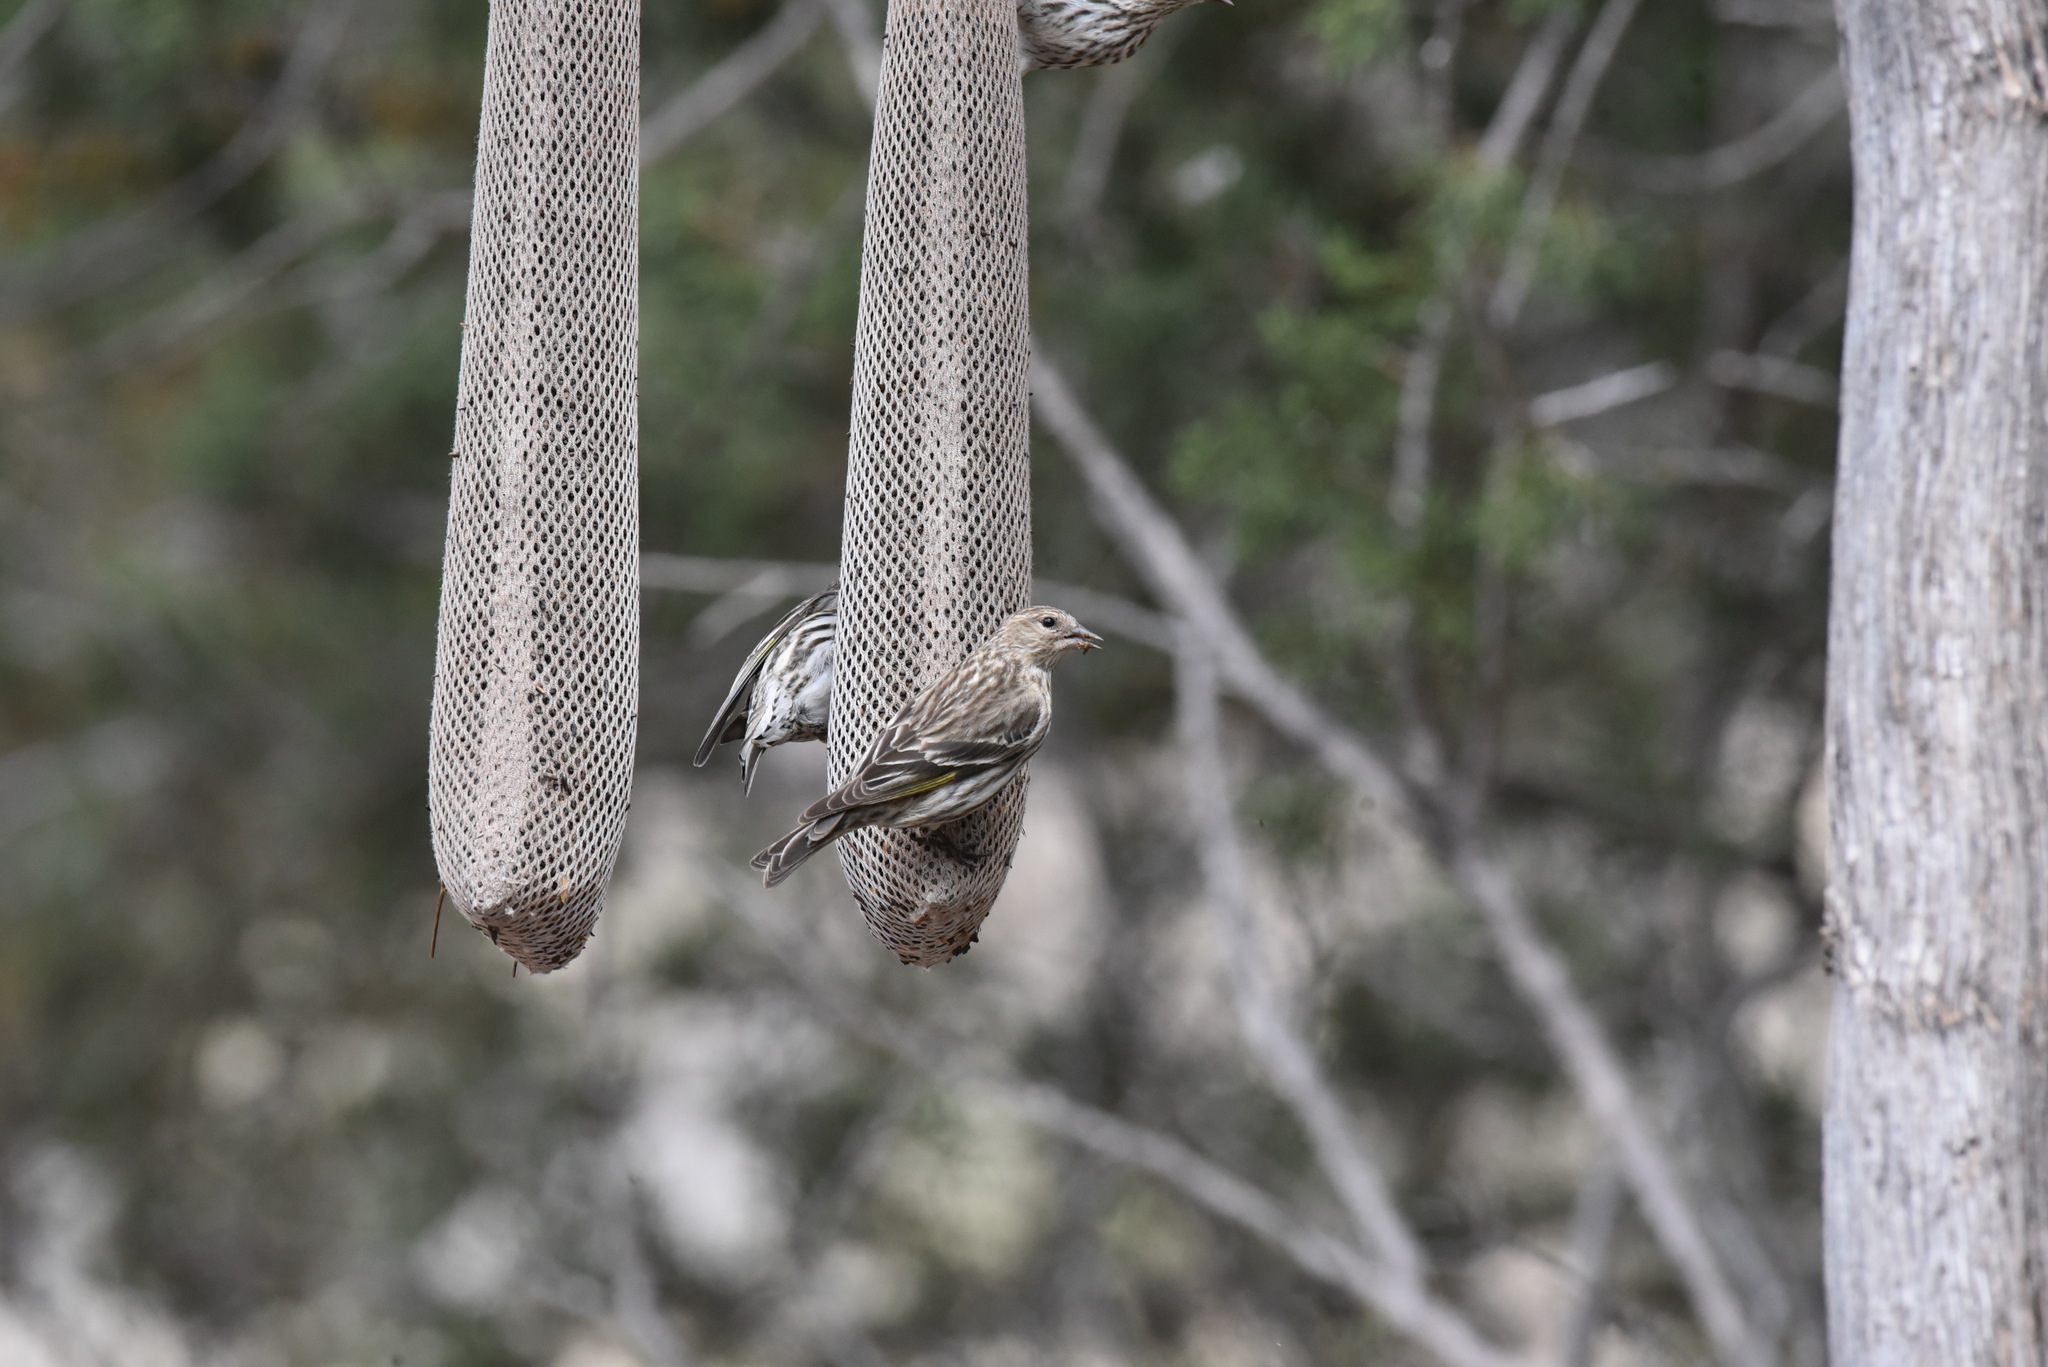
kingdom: Animalia
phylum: Chordata
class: Aves
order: Passeriformes
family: Fringillidae
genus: Spinus
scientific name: Spinus pinus
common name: Pine siskin
